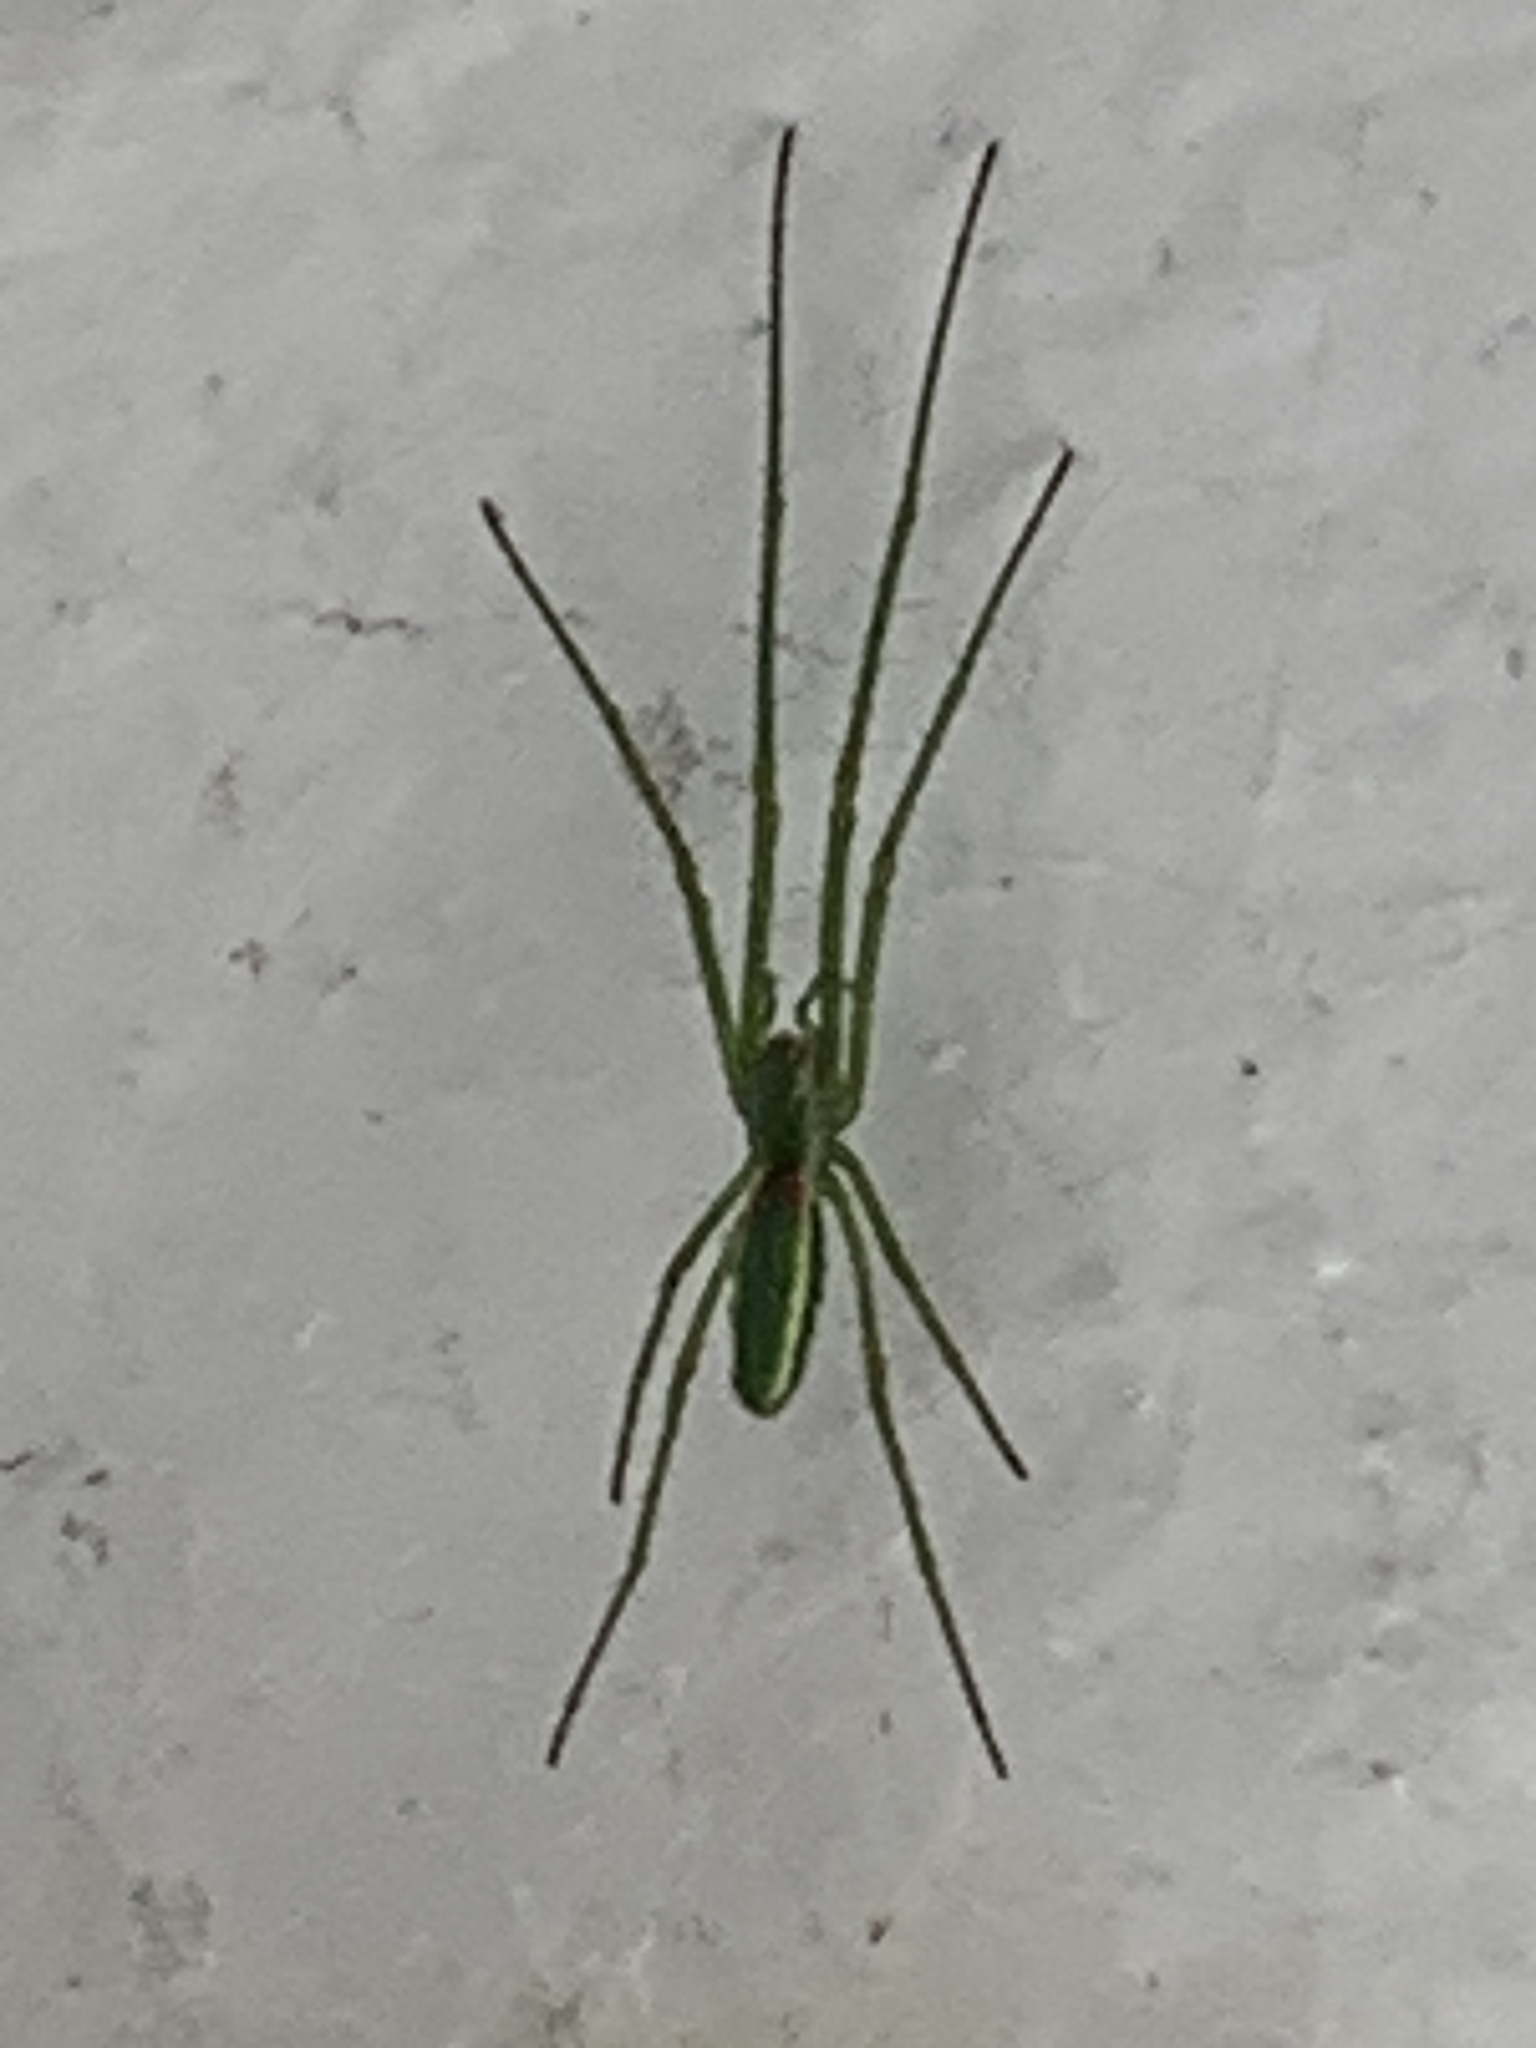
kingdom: Animalia
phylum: Arthropoda
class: Arachnida
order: Araneae
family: Tetragnathidae
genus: Tetragnatha
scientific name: Tetragnatha viridis
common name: Green long-jawed spider
